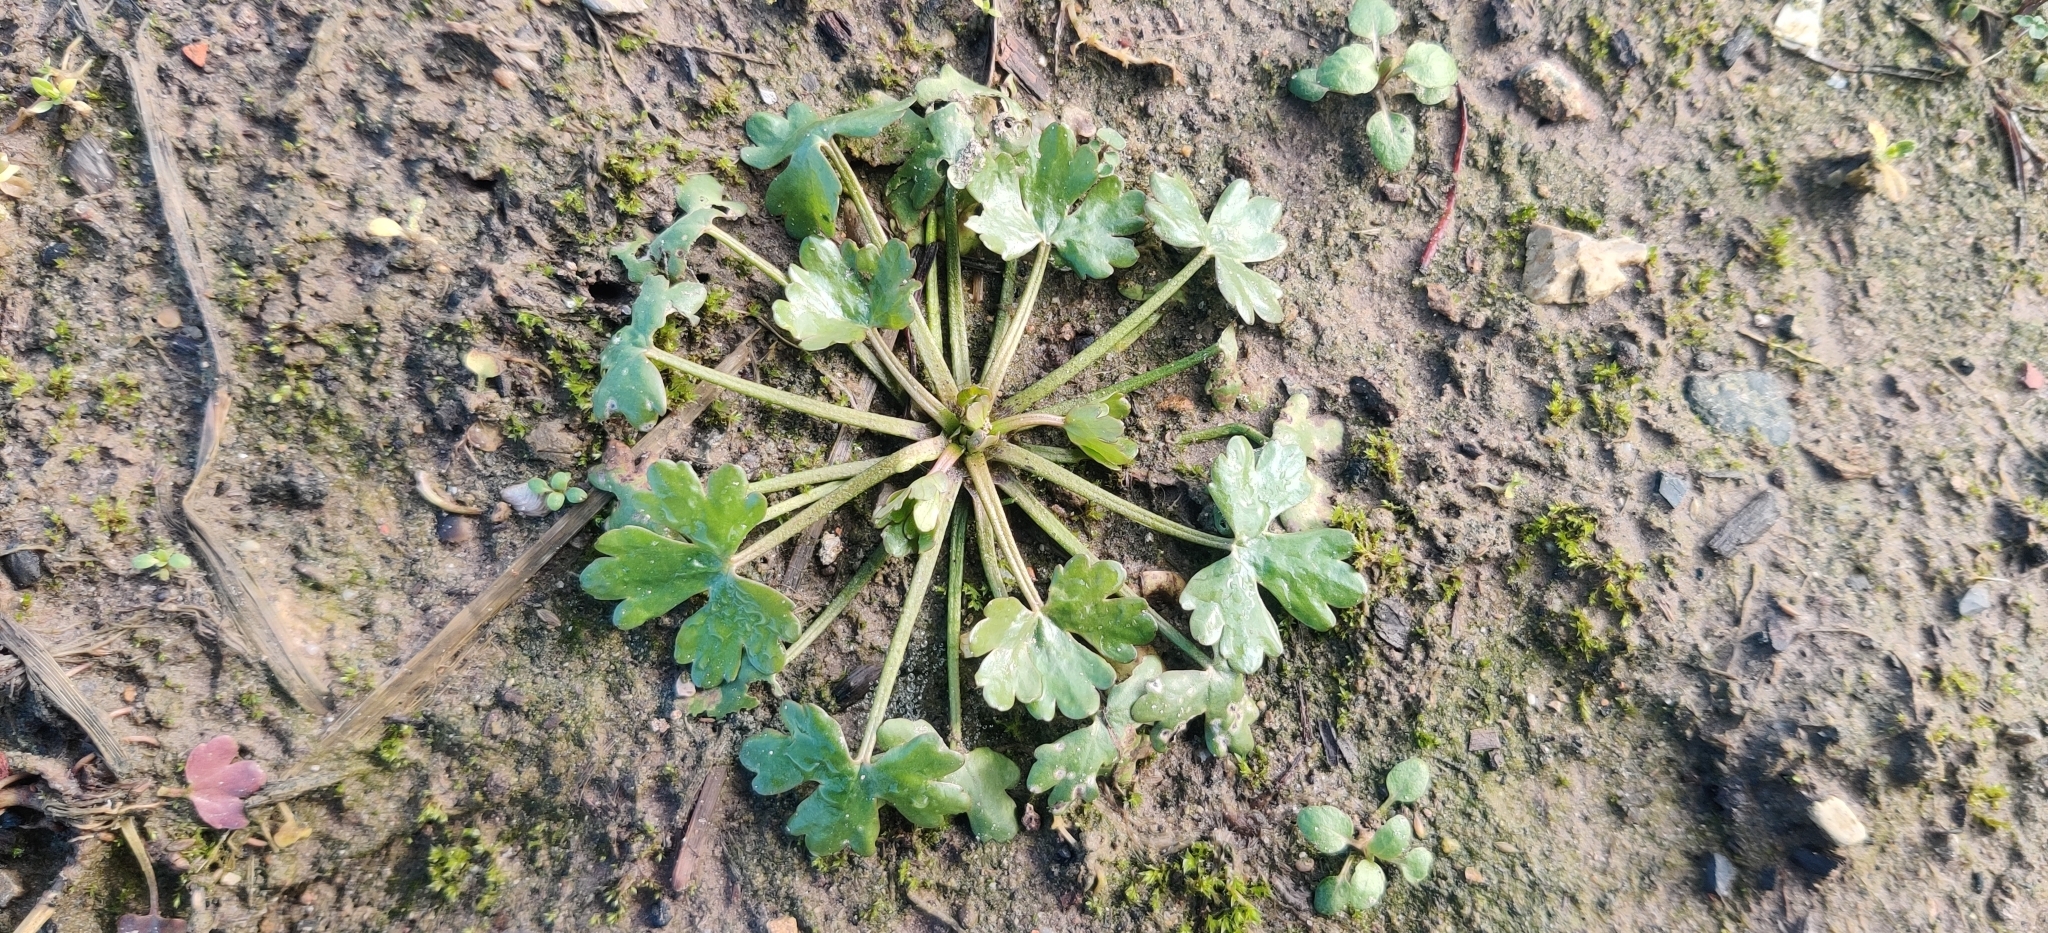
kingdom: Plantae
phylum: Tracheophyta
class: Magnoliopsida
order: Ranunculales
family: Ranunculaceae
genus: Ranunculus
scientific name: Ranunculus sardous
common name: Hairy buttercup
